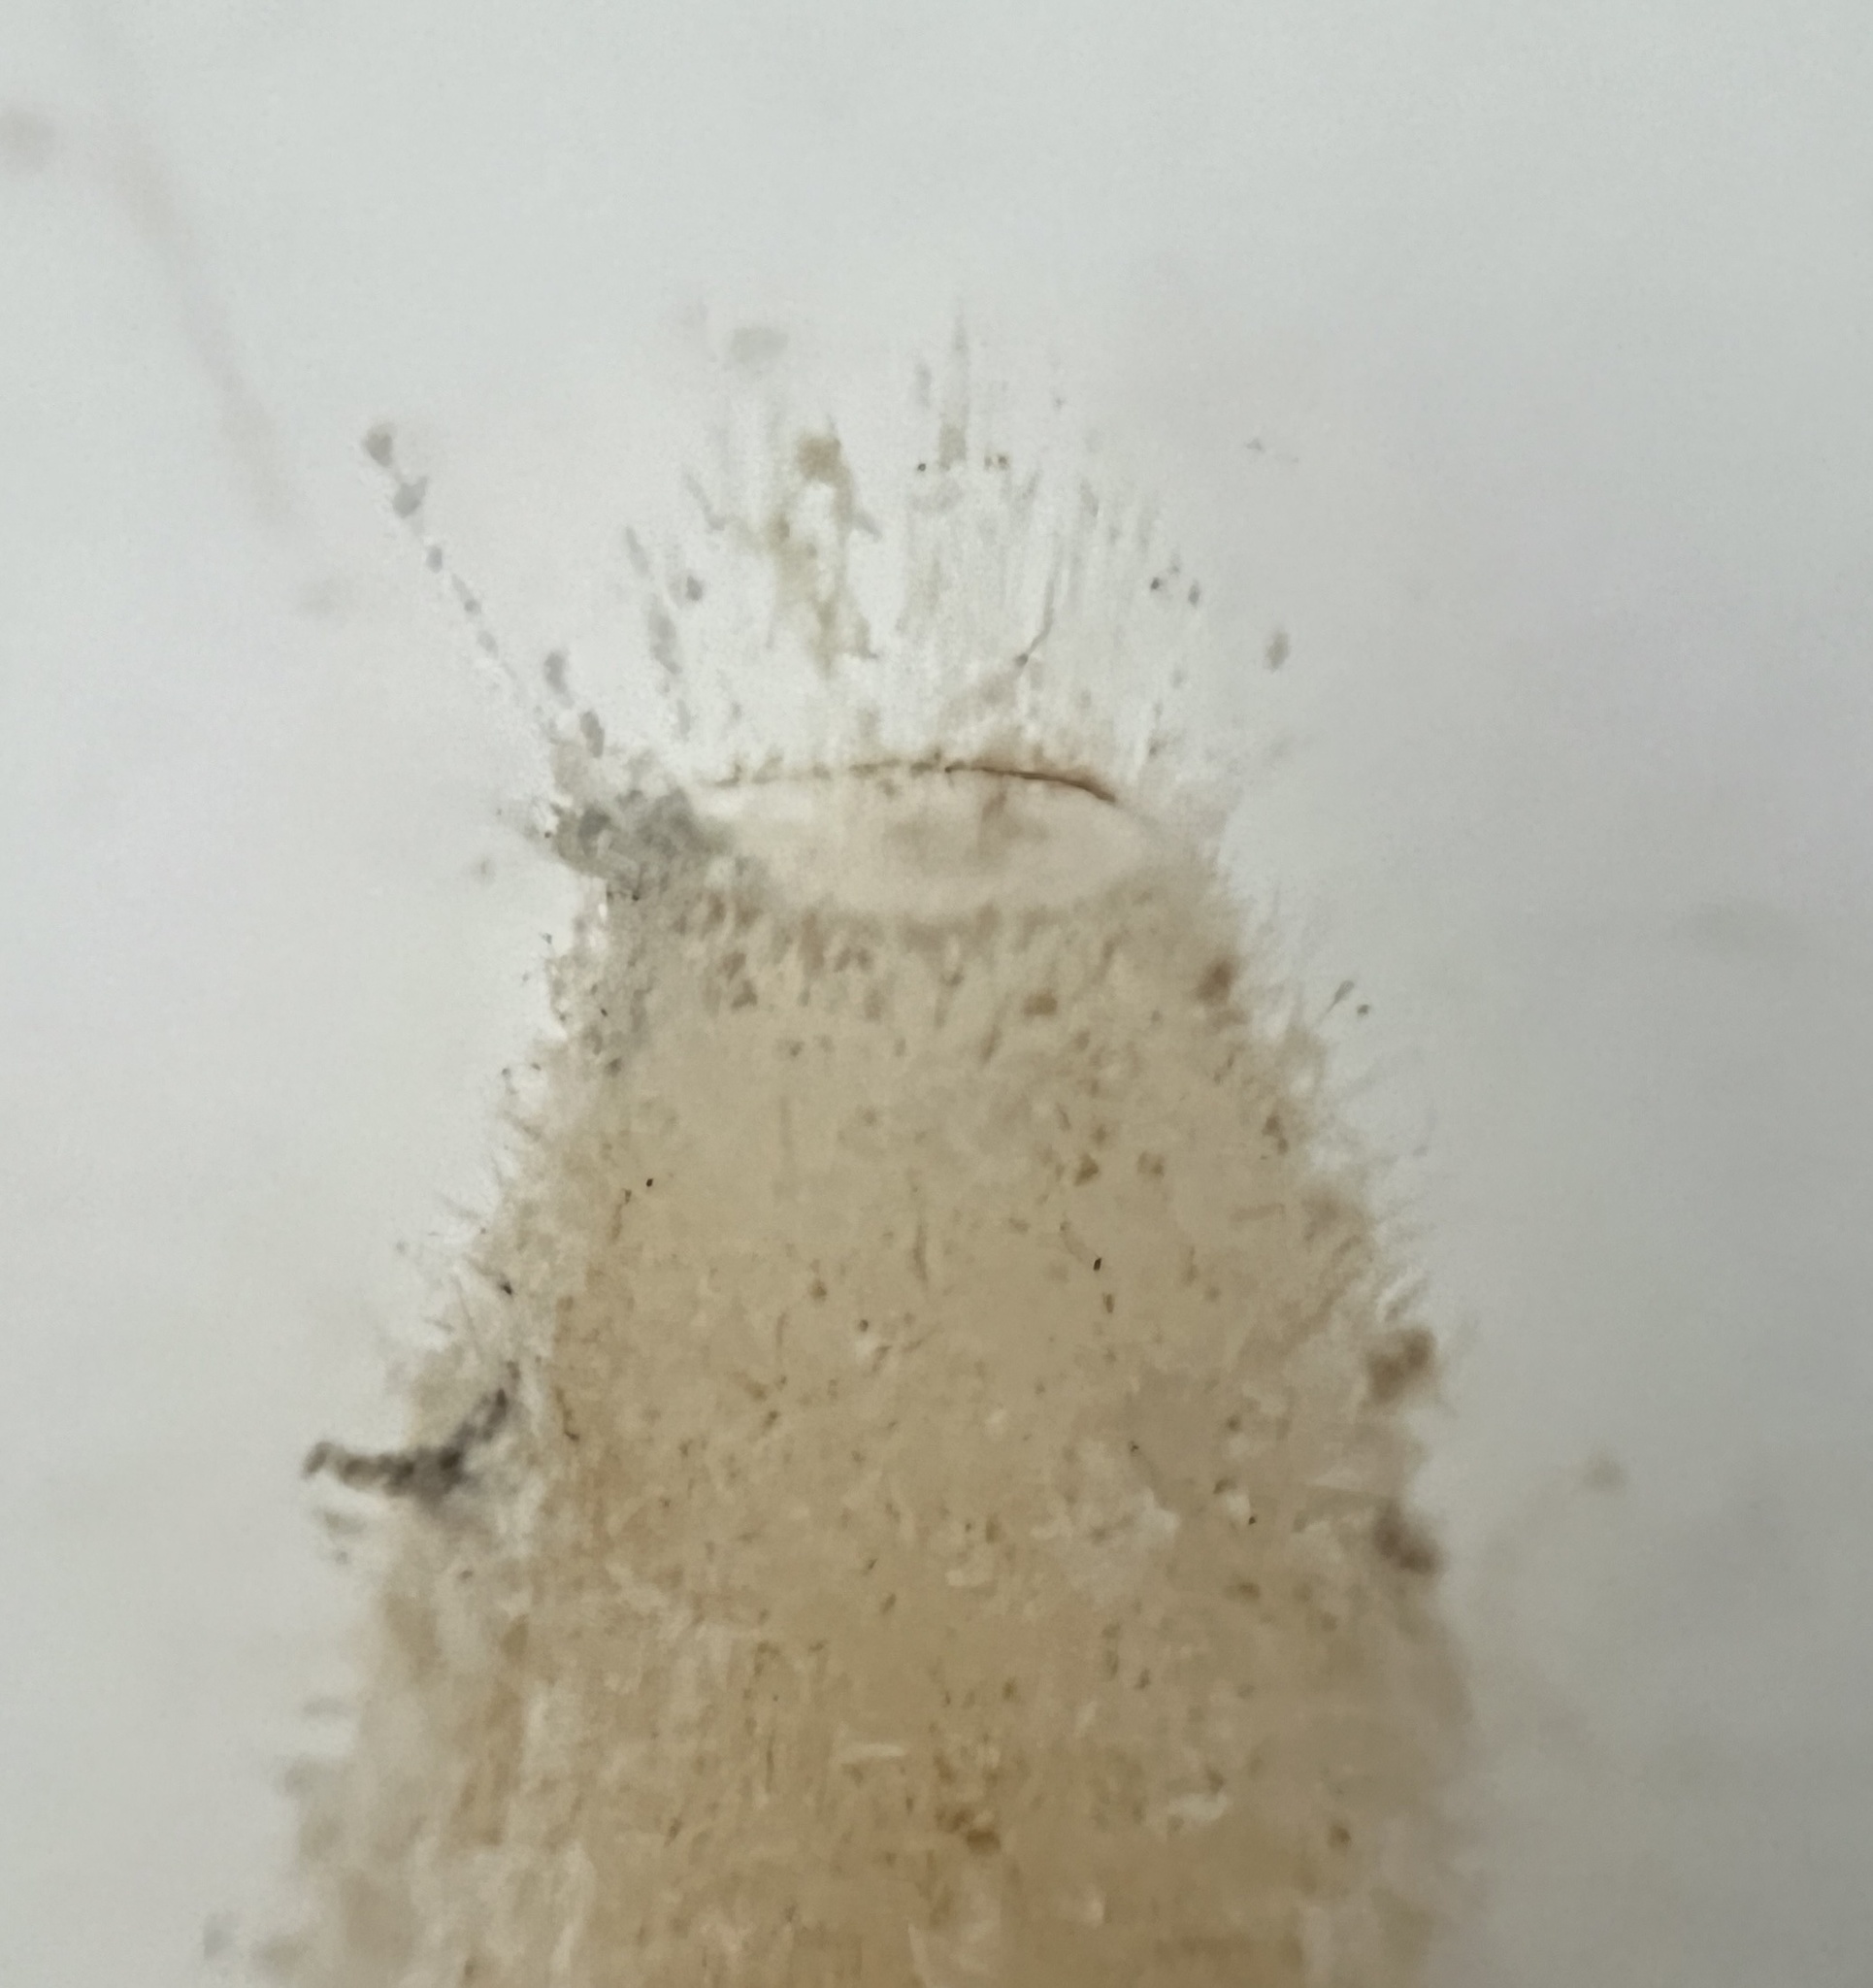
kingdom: Animalia
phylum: Porifera
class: Calcarea
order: Leucosolenida
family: Syconidae
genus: Sycon
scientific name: Sycon ciliatum
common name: Ciliated sponge
